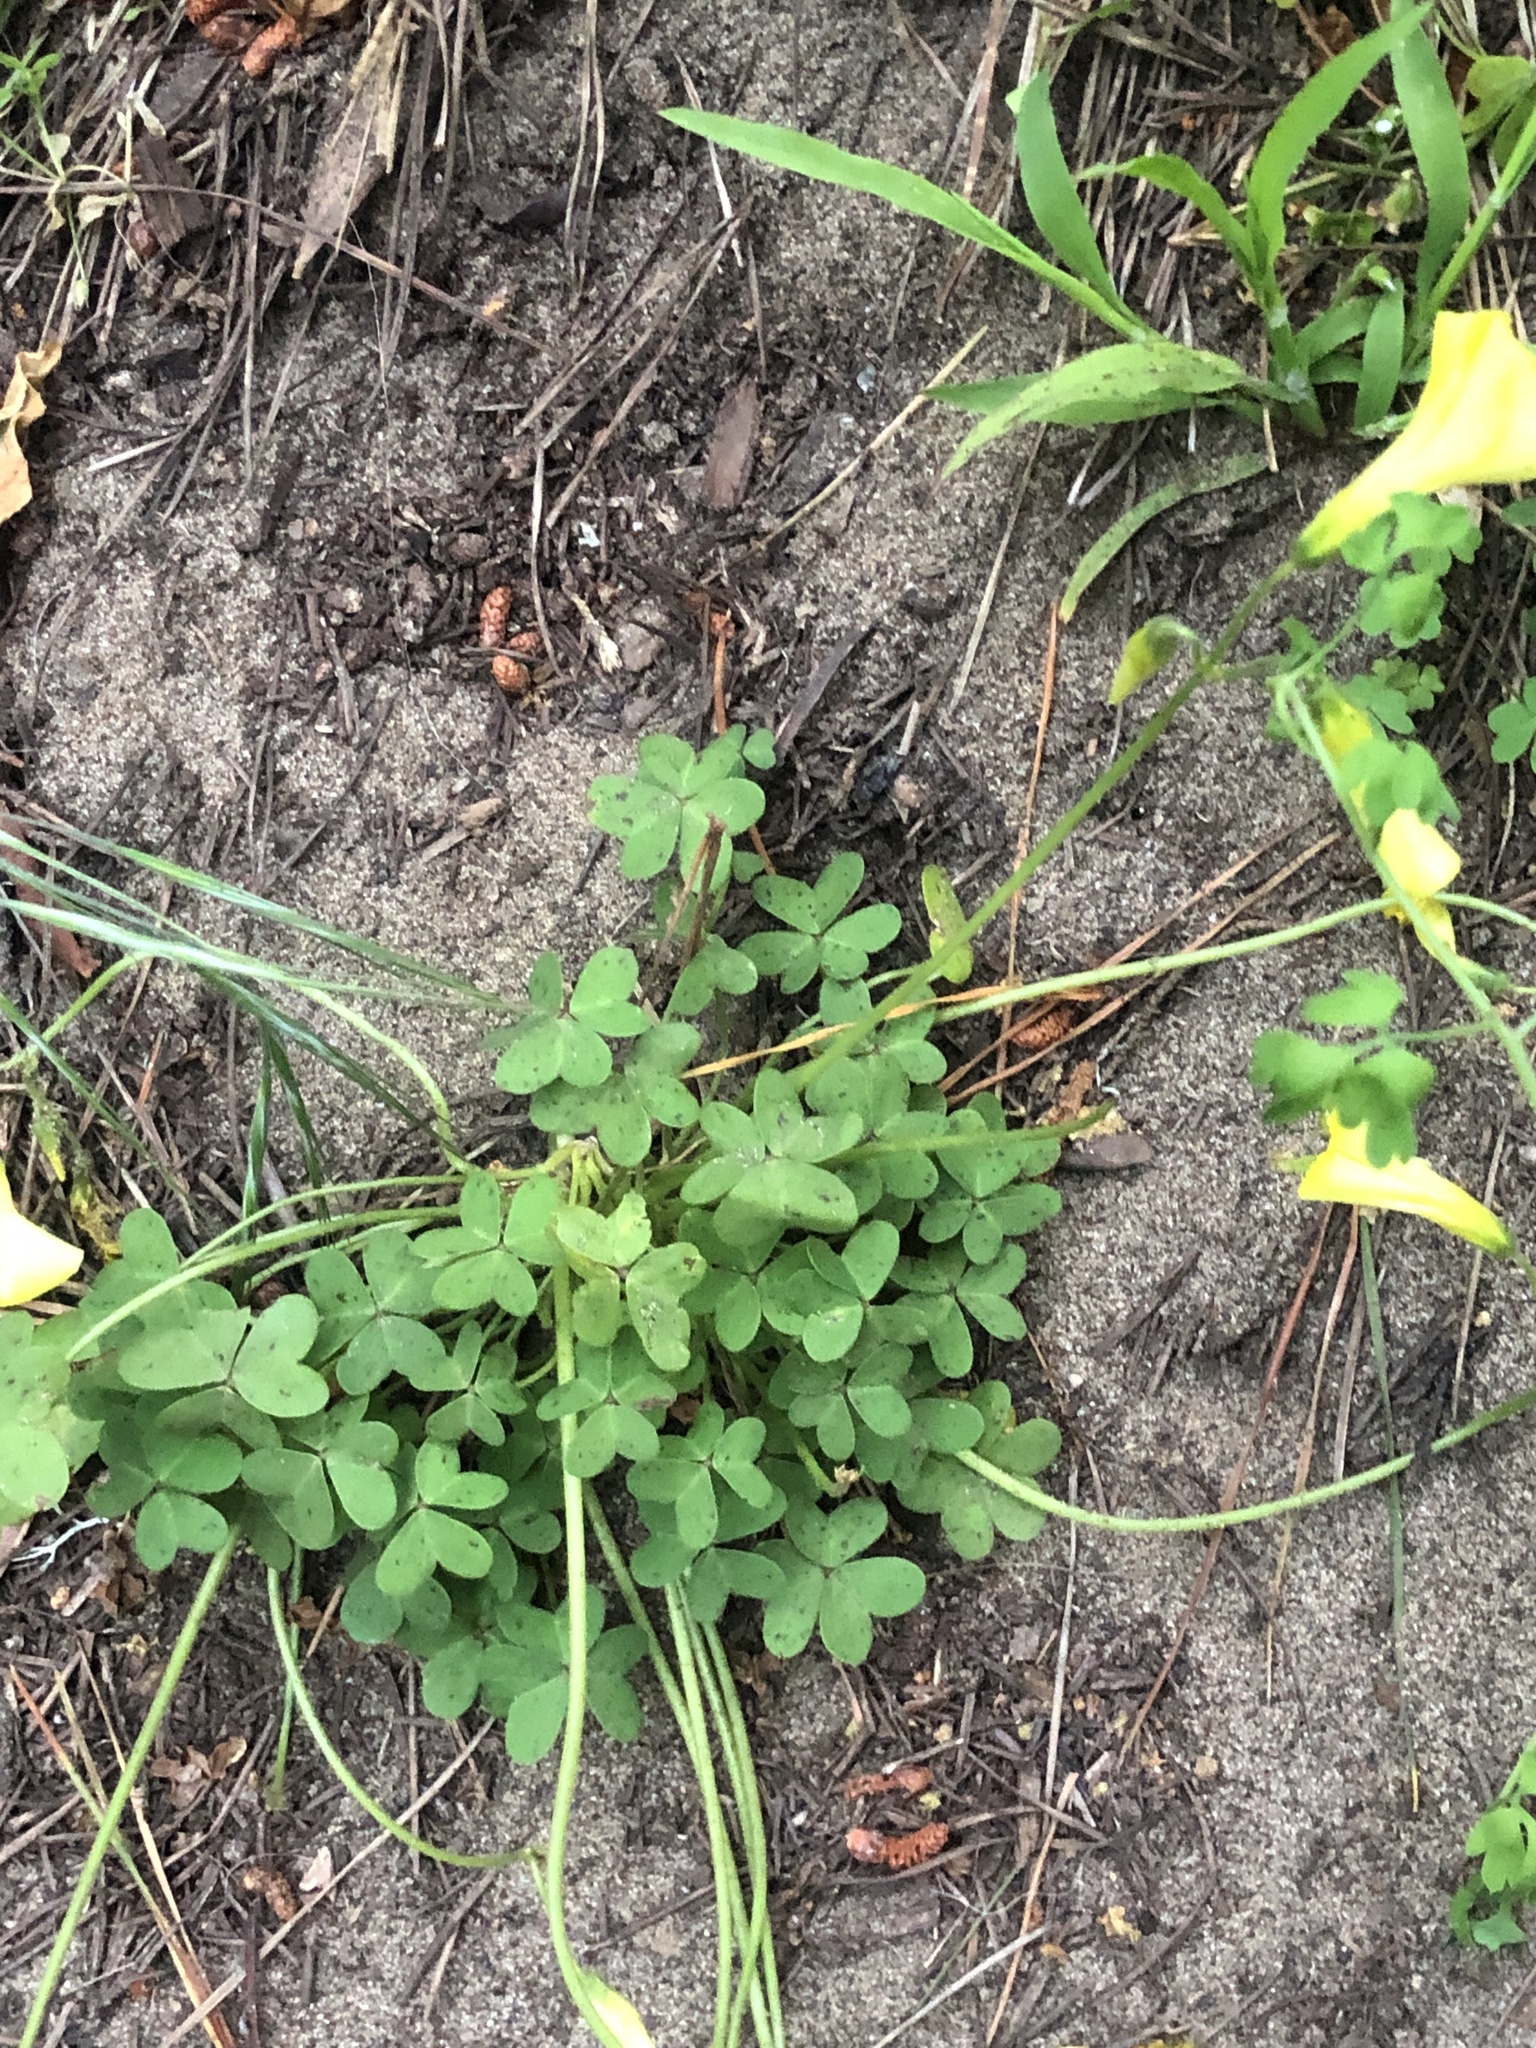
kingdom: Plantae
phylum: Tracheophyta
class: Magnoliopsida
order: Oxalidales
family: Oxalidaceae
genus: Oxalis
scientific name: Oxalis pes-caprae
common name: Bermuda-buttercup
